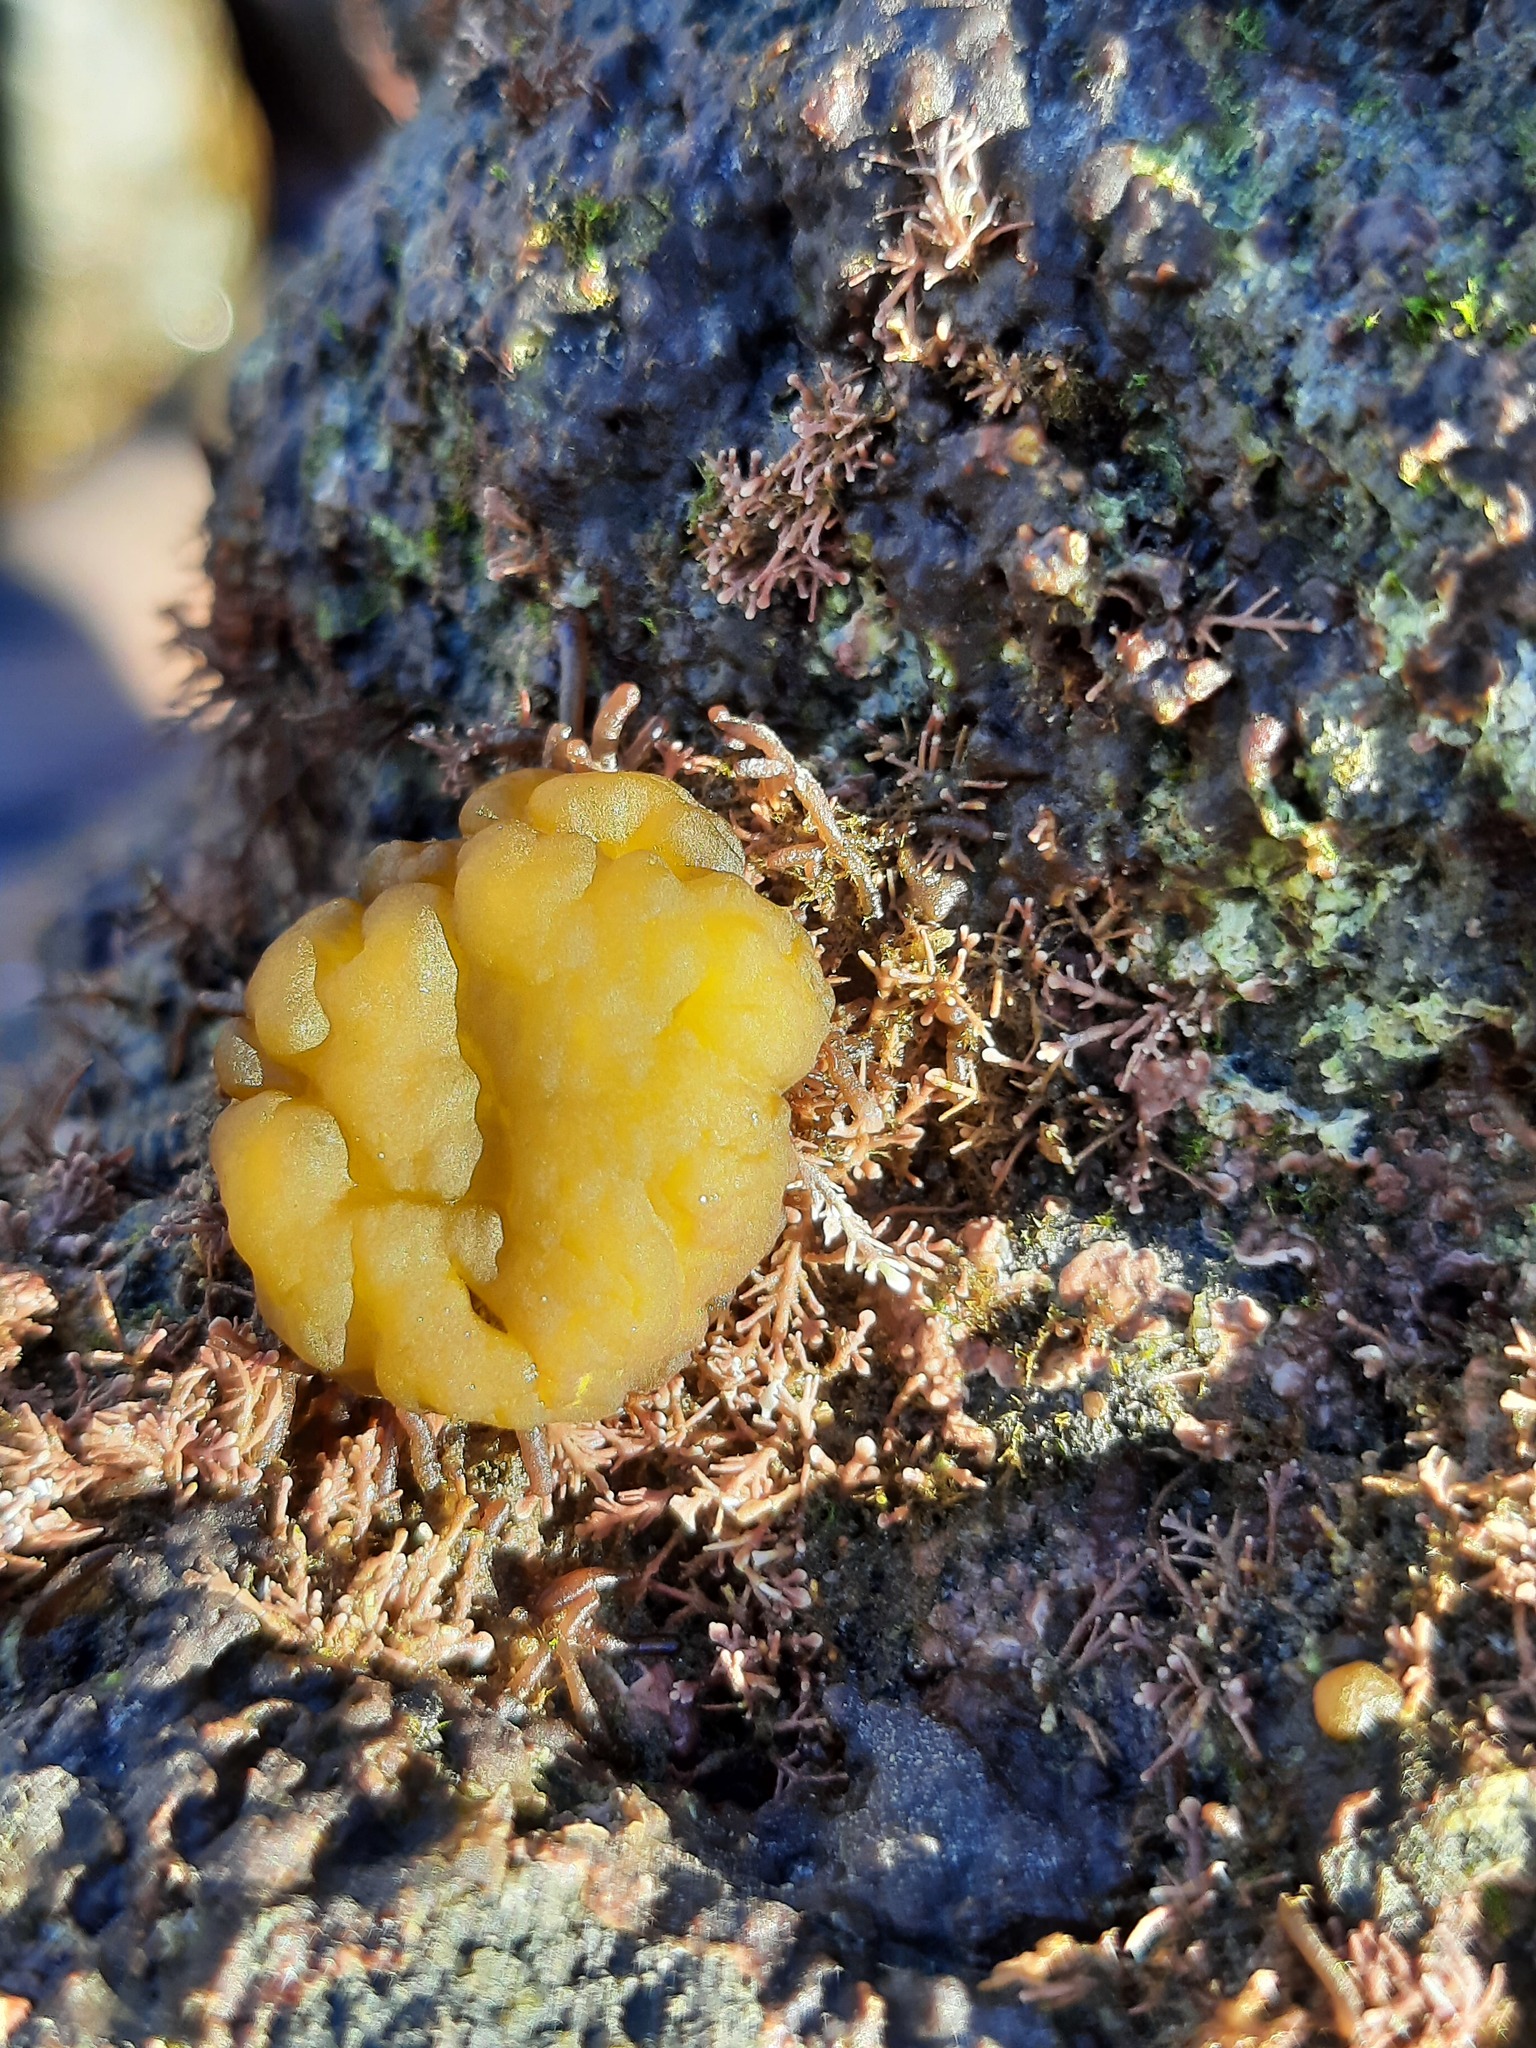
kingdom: Chromista
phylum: Ochrophyta
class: Phaeophyceae
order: Ectocarpales
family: Chordariaceae
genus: Leathesia
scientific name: Leathesia marina
